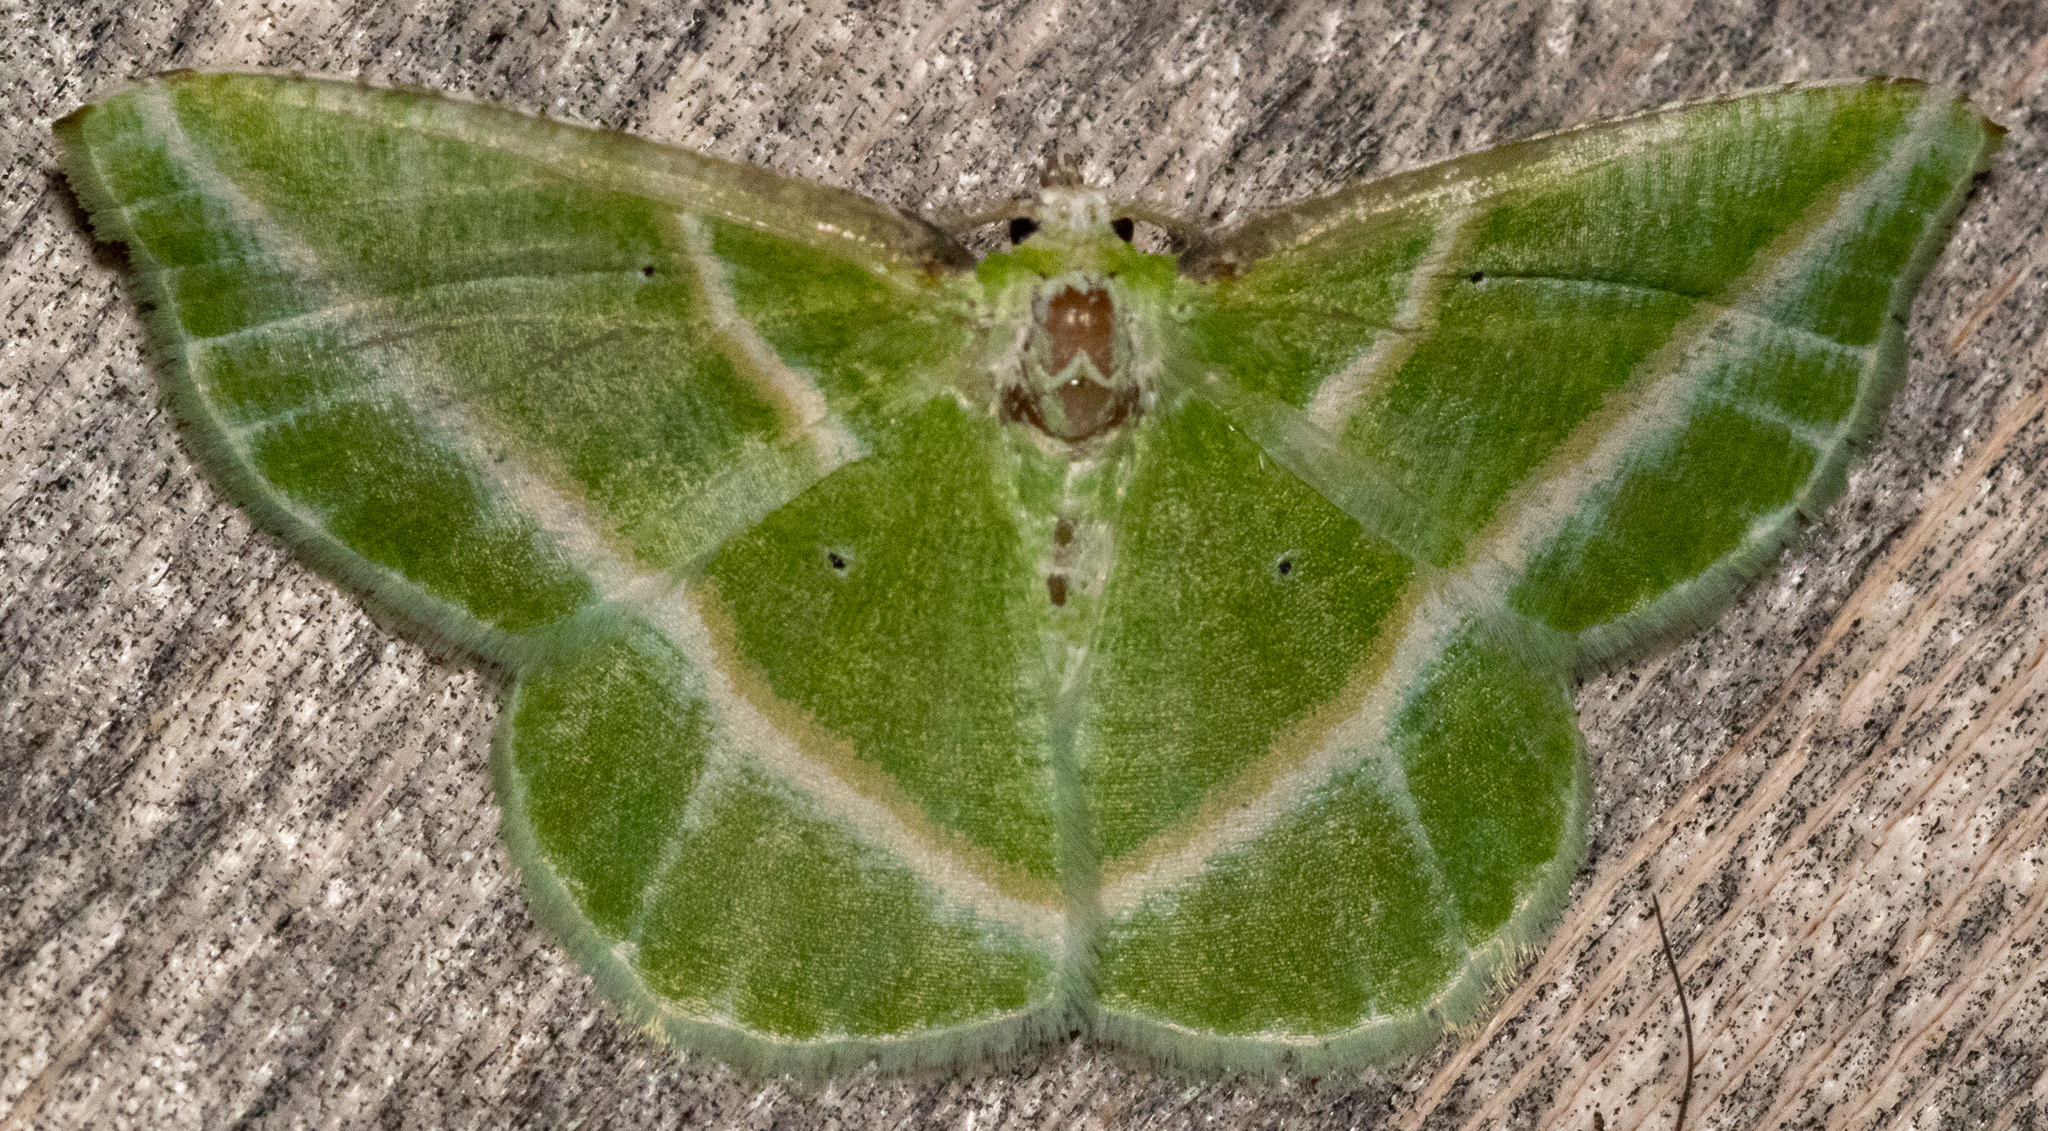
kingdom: Animalia
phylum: Arthropoda
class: Insecta
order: Lepidoptera
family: Geometridae
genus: Dichorda
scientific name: Dichorda iridaria
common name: Showy emerald
